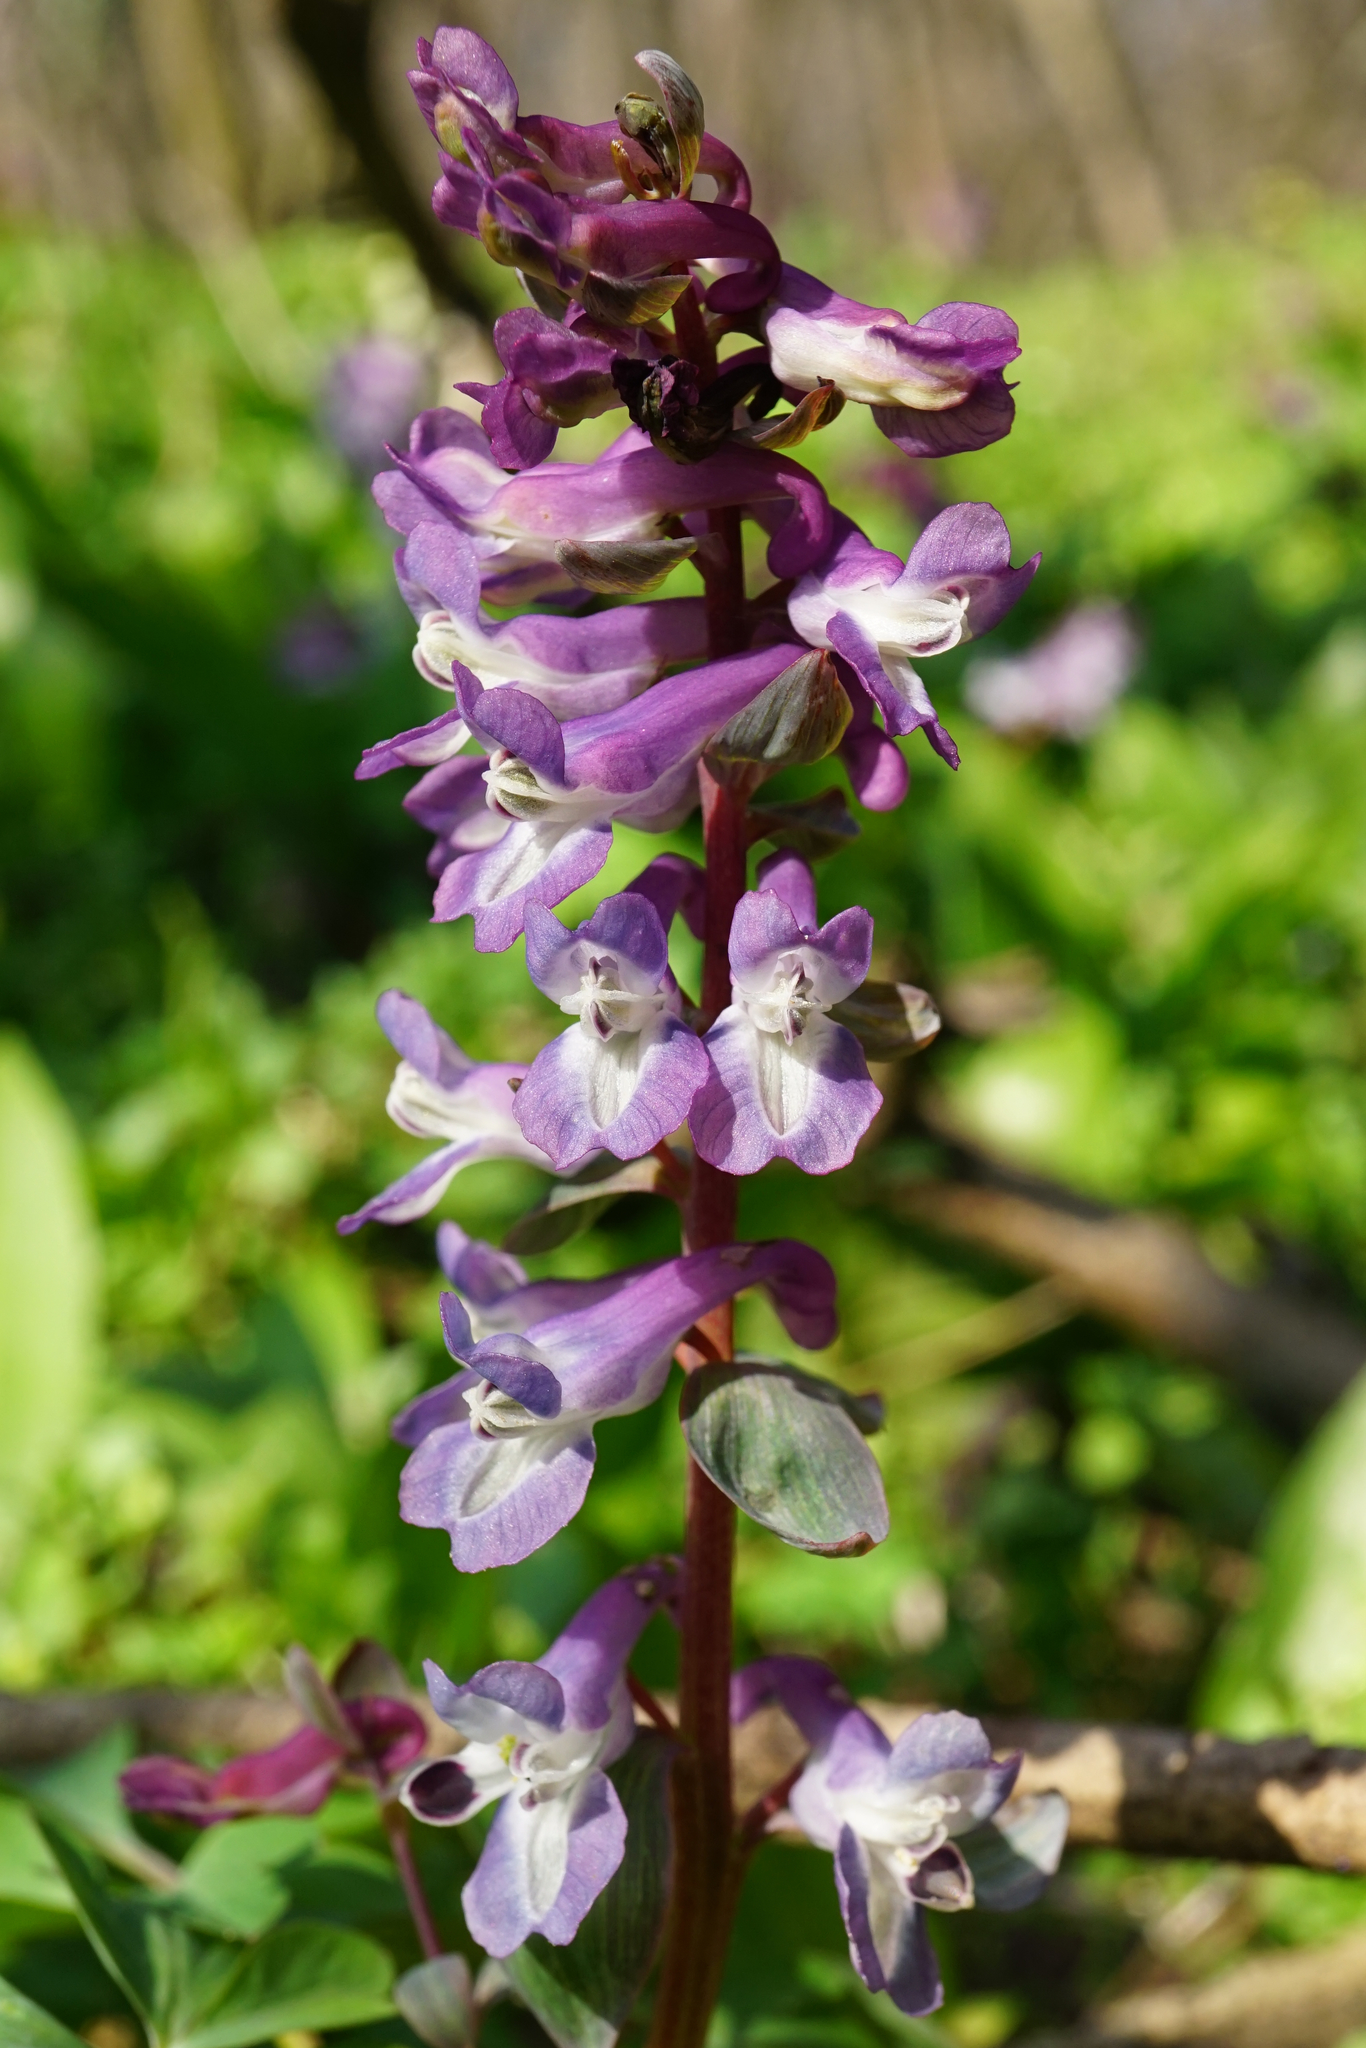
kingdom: Plantae
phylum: Tracheophyta
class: Magnoliopsida
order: Ranunculales
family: Papaveraceae
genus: Corydalis
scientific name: Corydalis cava
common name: Hollowroot
